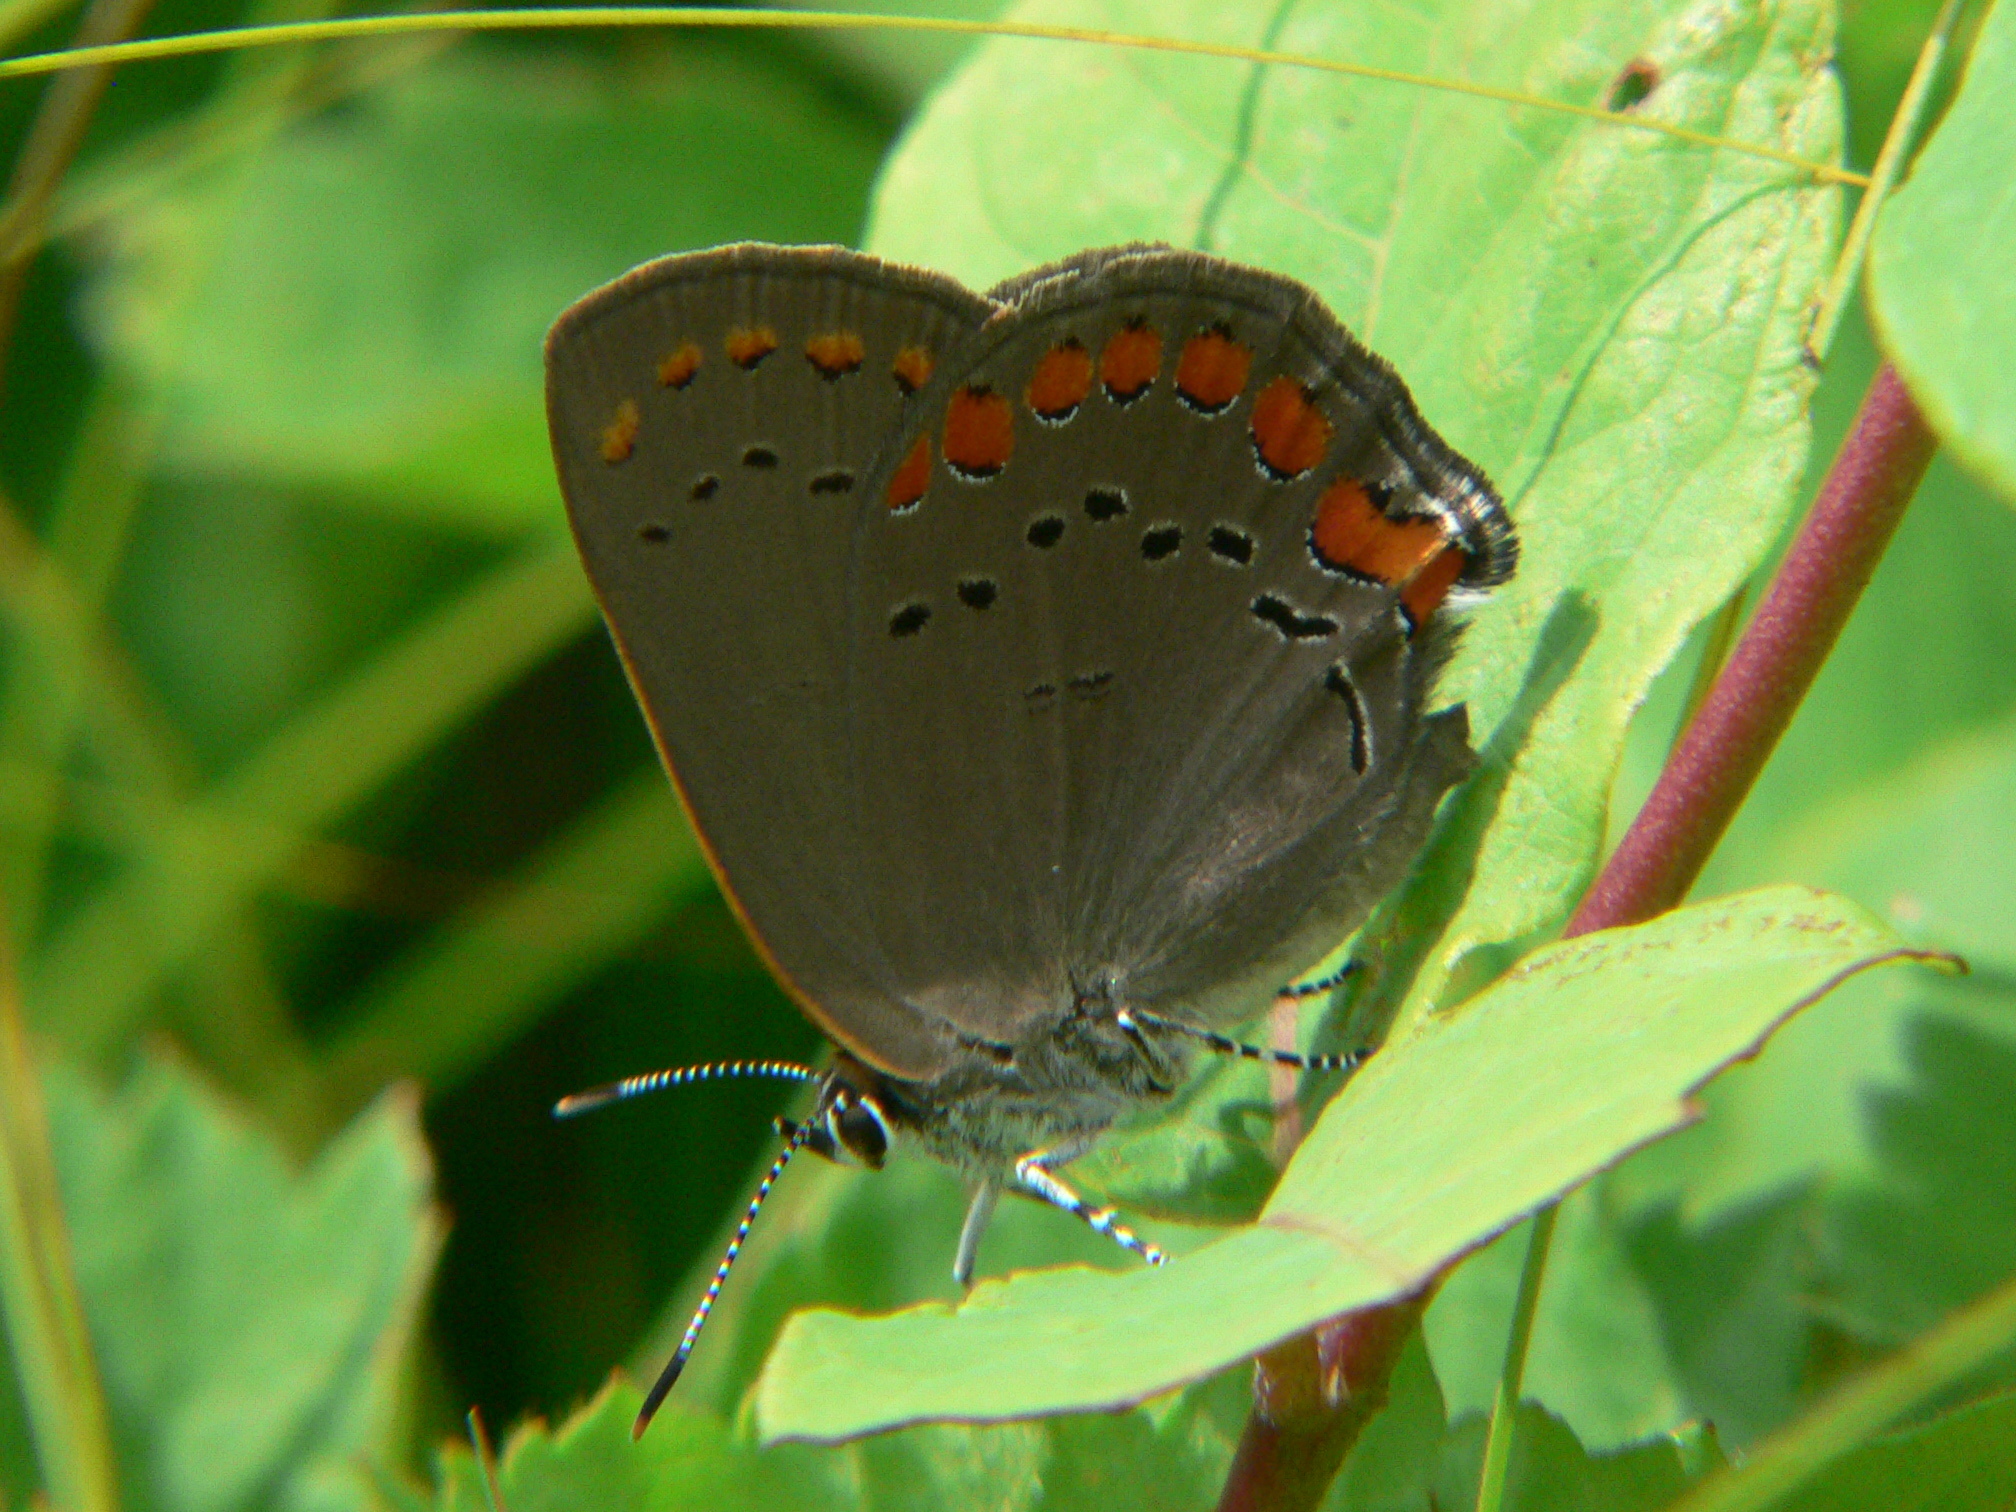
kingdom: Animalia
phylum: Arthropoda
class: Insecta
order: Lepidoptera
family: Lycaenidae
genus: Harkenclenus
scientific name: Harkenclenus titus
